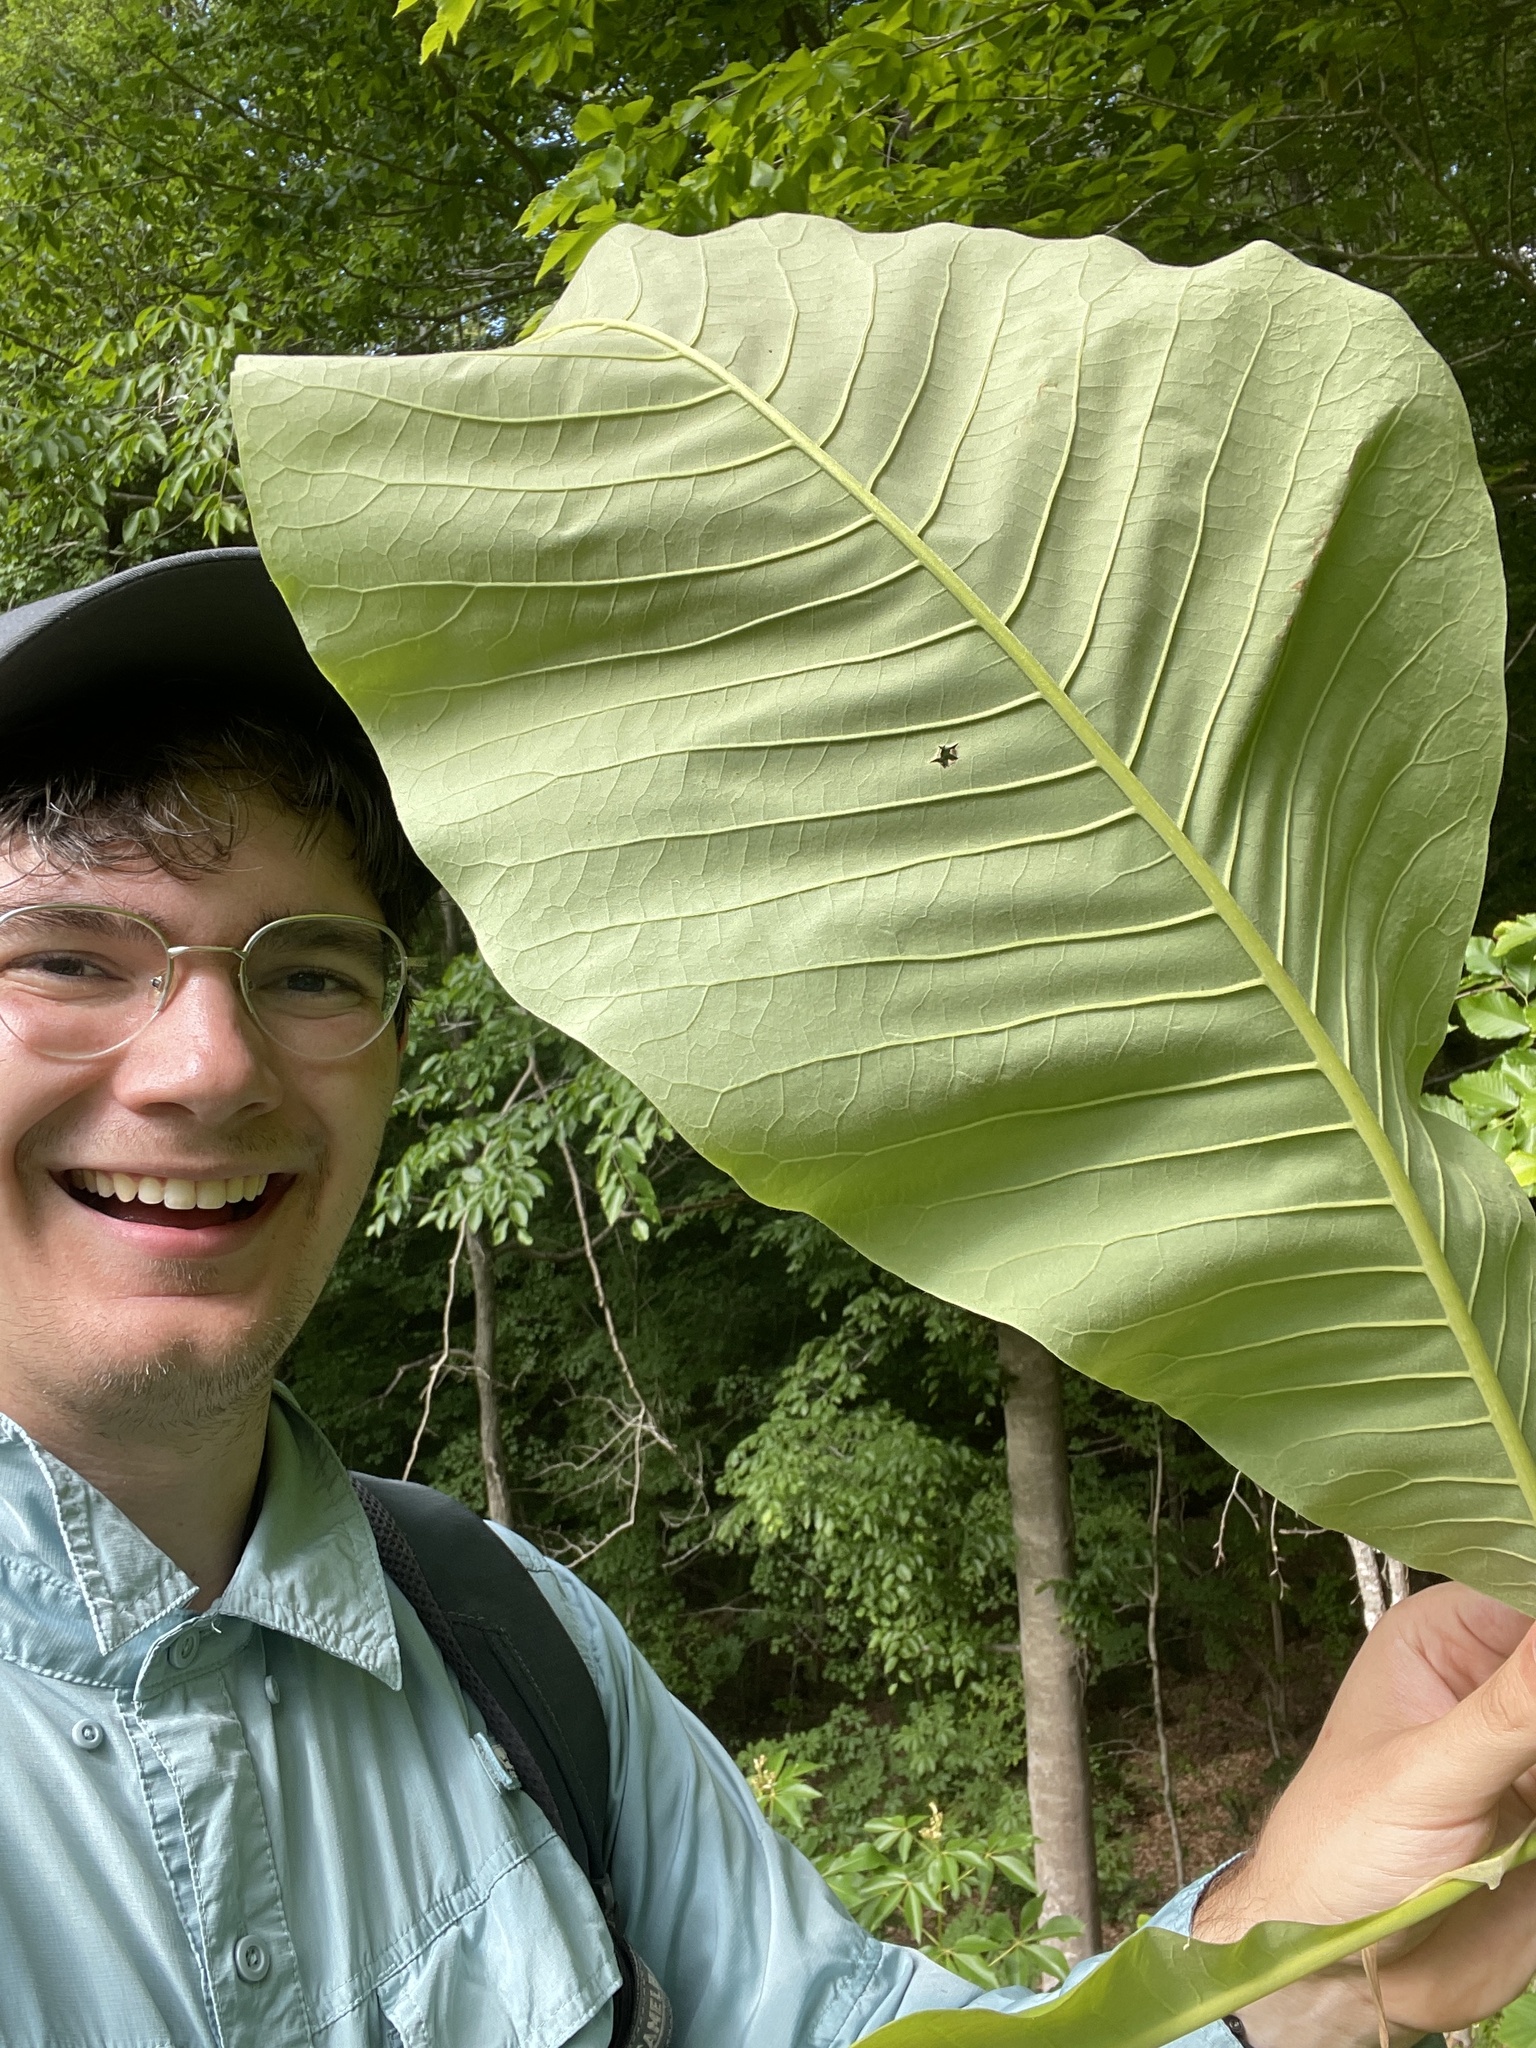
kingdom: Plantae
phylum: Tracheophyta
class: Magnoliopsida
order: Magnoliales
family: Magnoliaceae
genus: Magnolia
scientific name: Magnolia tripetala
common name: Umbrella magnolia
